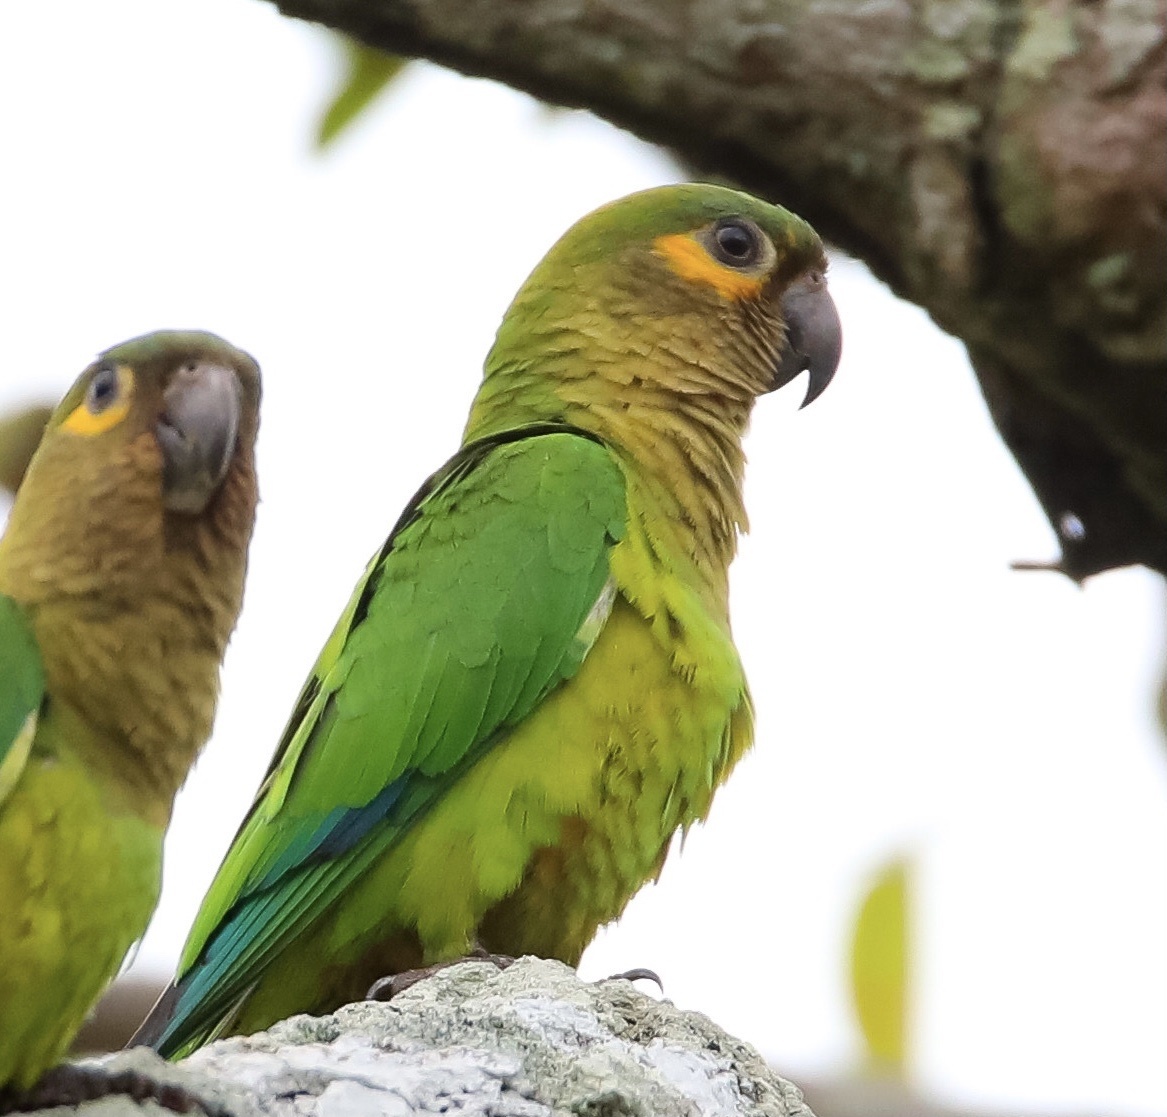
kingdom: Animalia
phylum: Chordata
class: Aves
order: Psittaciformes
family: Psittacidae
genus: Aratinga
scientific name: Aratinga pertinax
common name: Brown-throated parakeet
